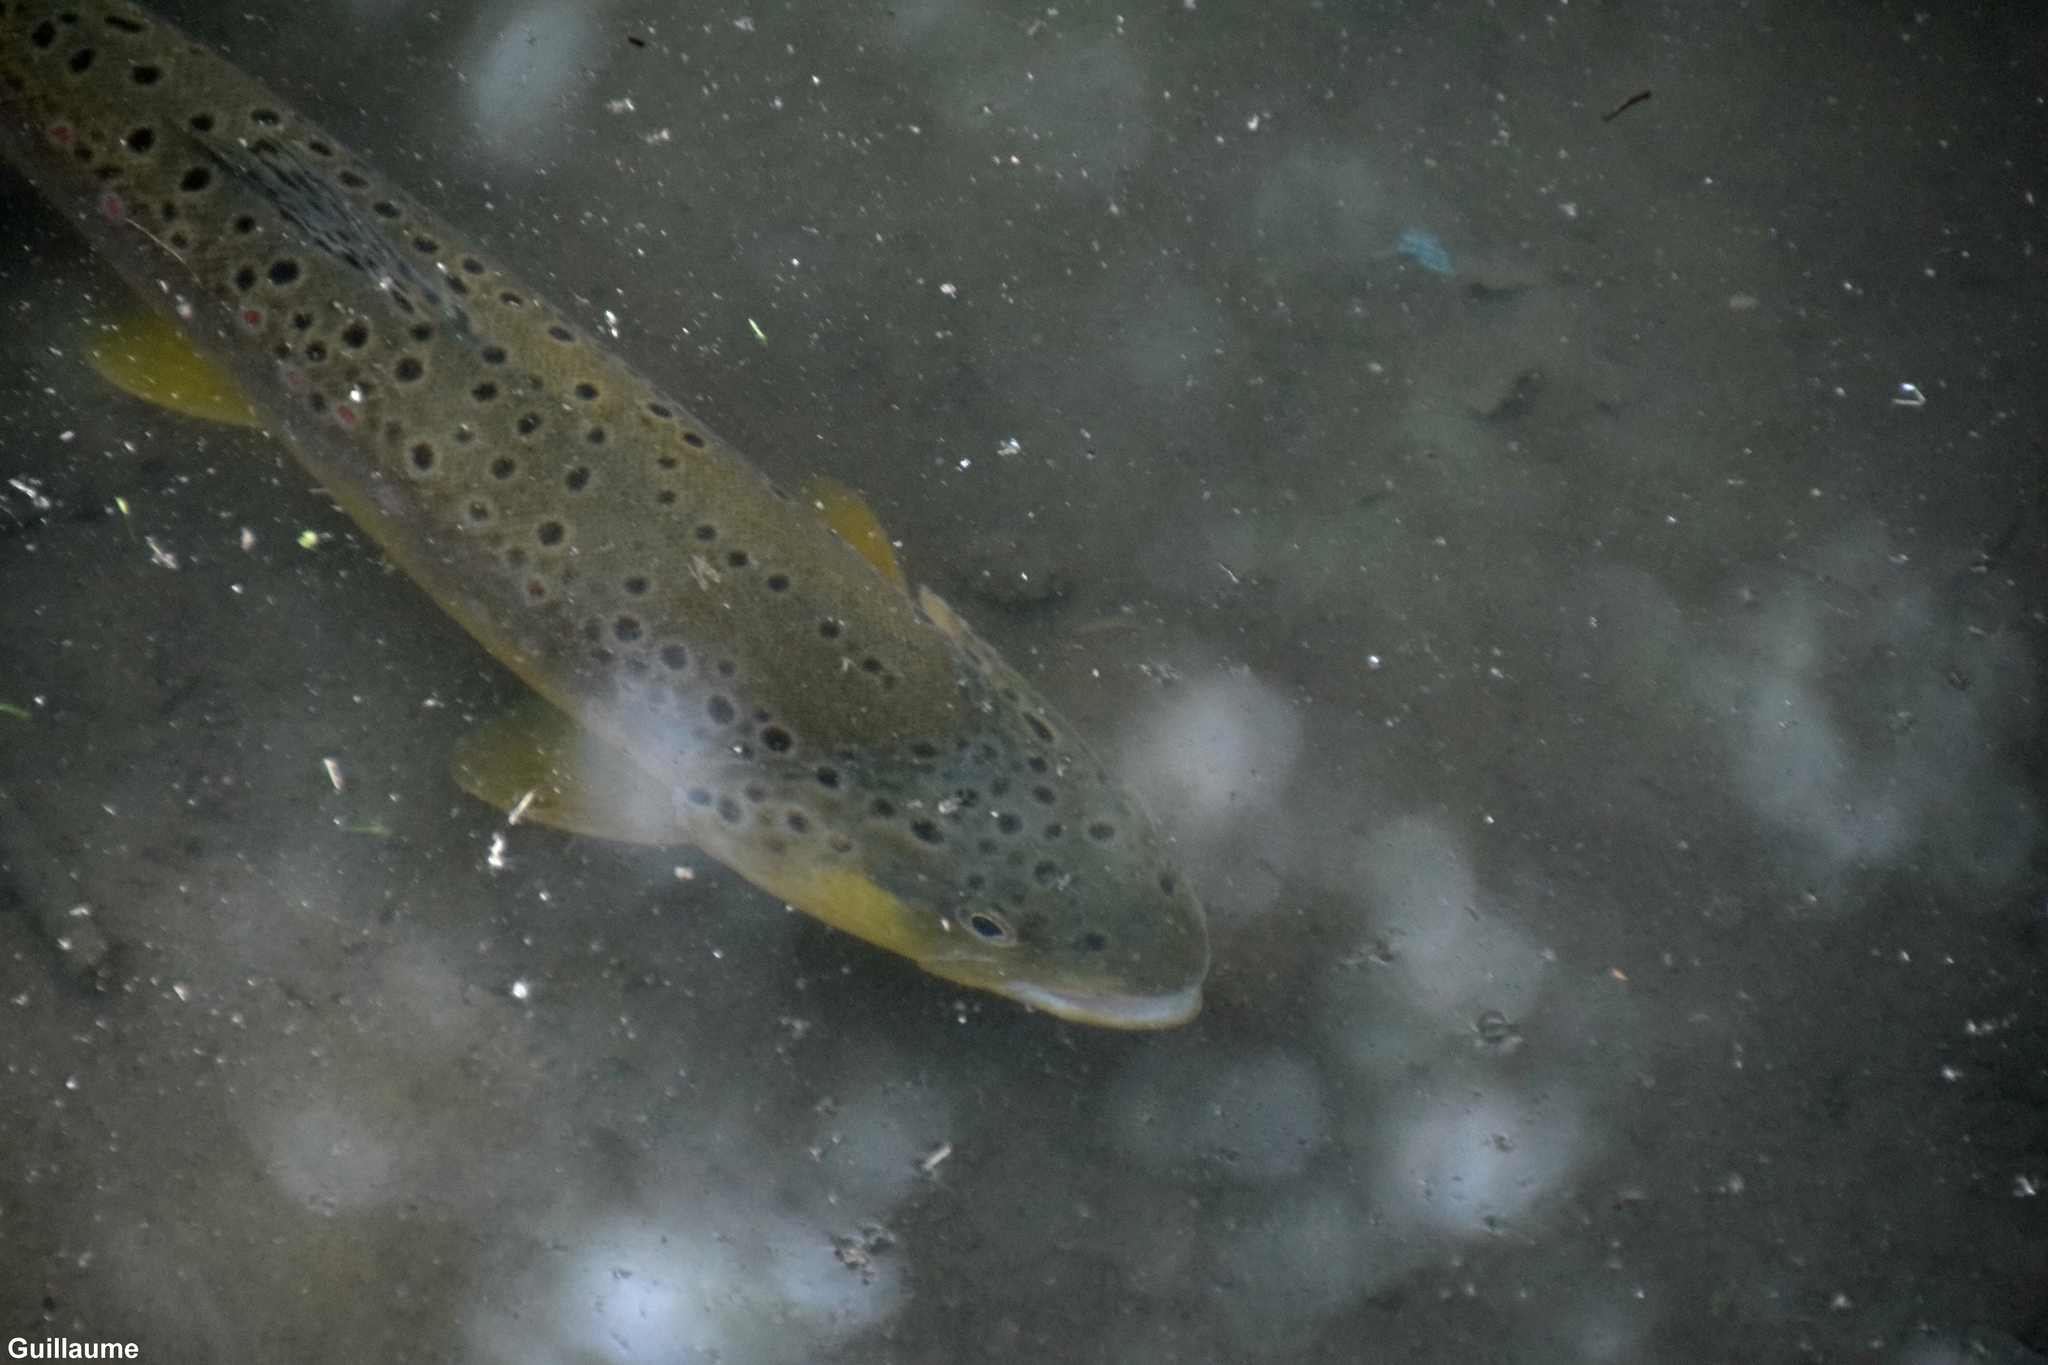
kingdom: Animalia
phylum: Chordata
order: Salmoniformes
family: Salmonidae
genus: Salmo
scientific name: Salmo trutta
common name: Brown trout
